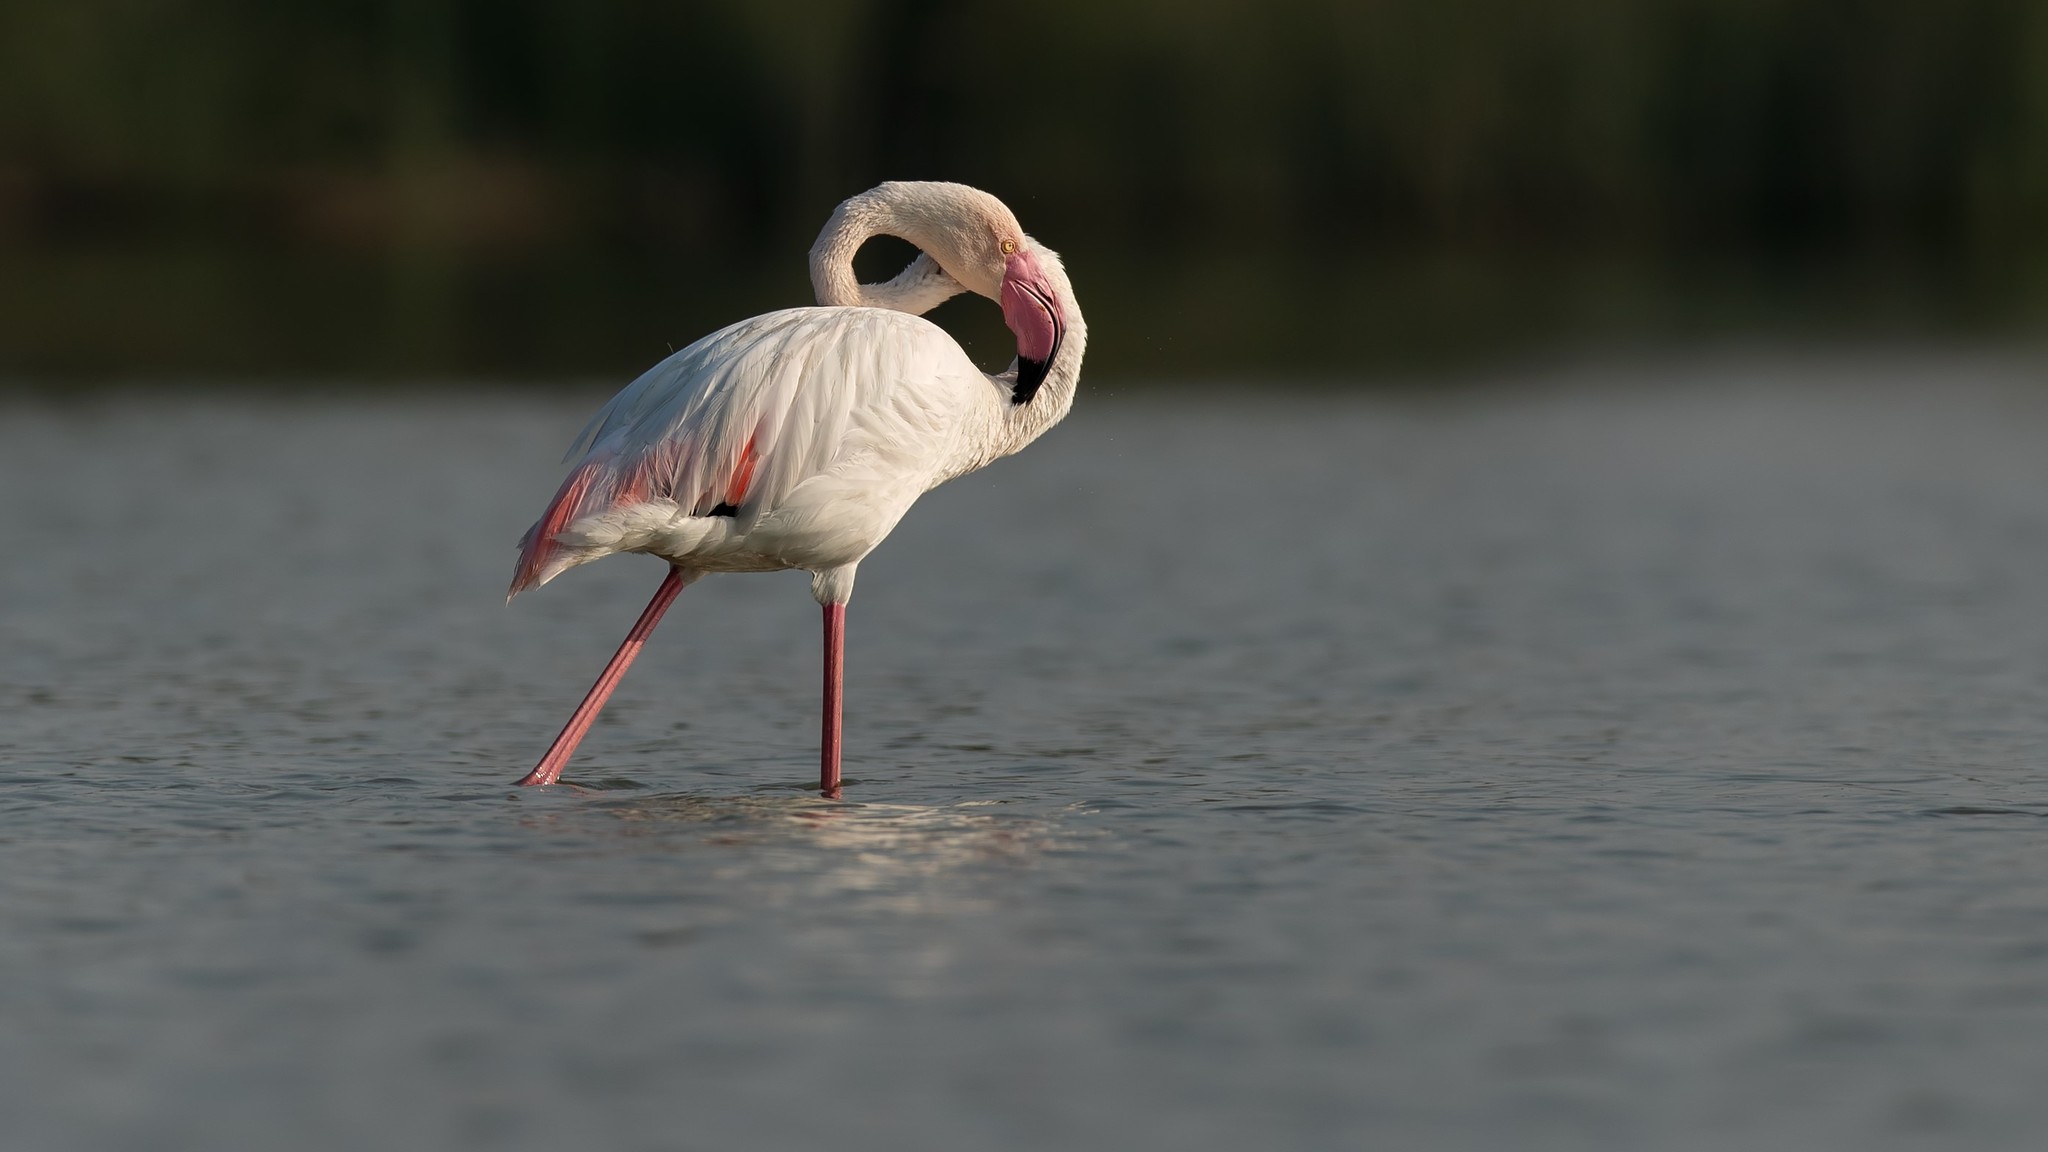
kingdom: Animalia
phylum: Chordata
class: Aves
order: Phoenicopteriformes
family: Phoenicopteridae
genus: Phoenicopterus
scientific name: Phoenicopterus roseus
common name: Greater flamingo
